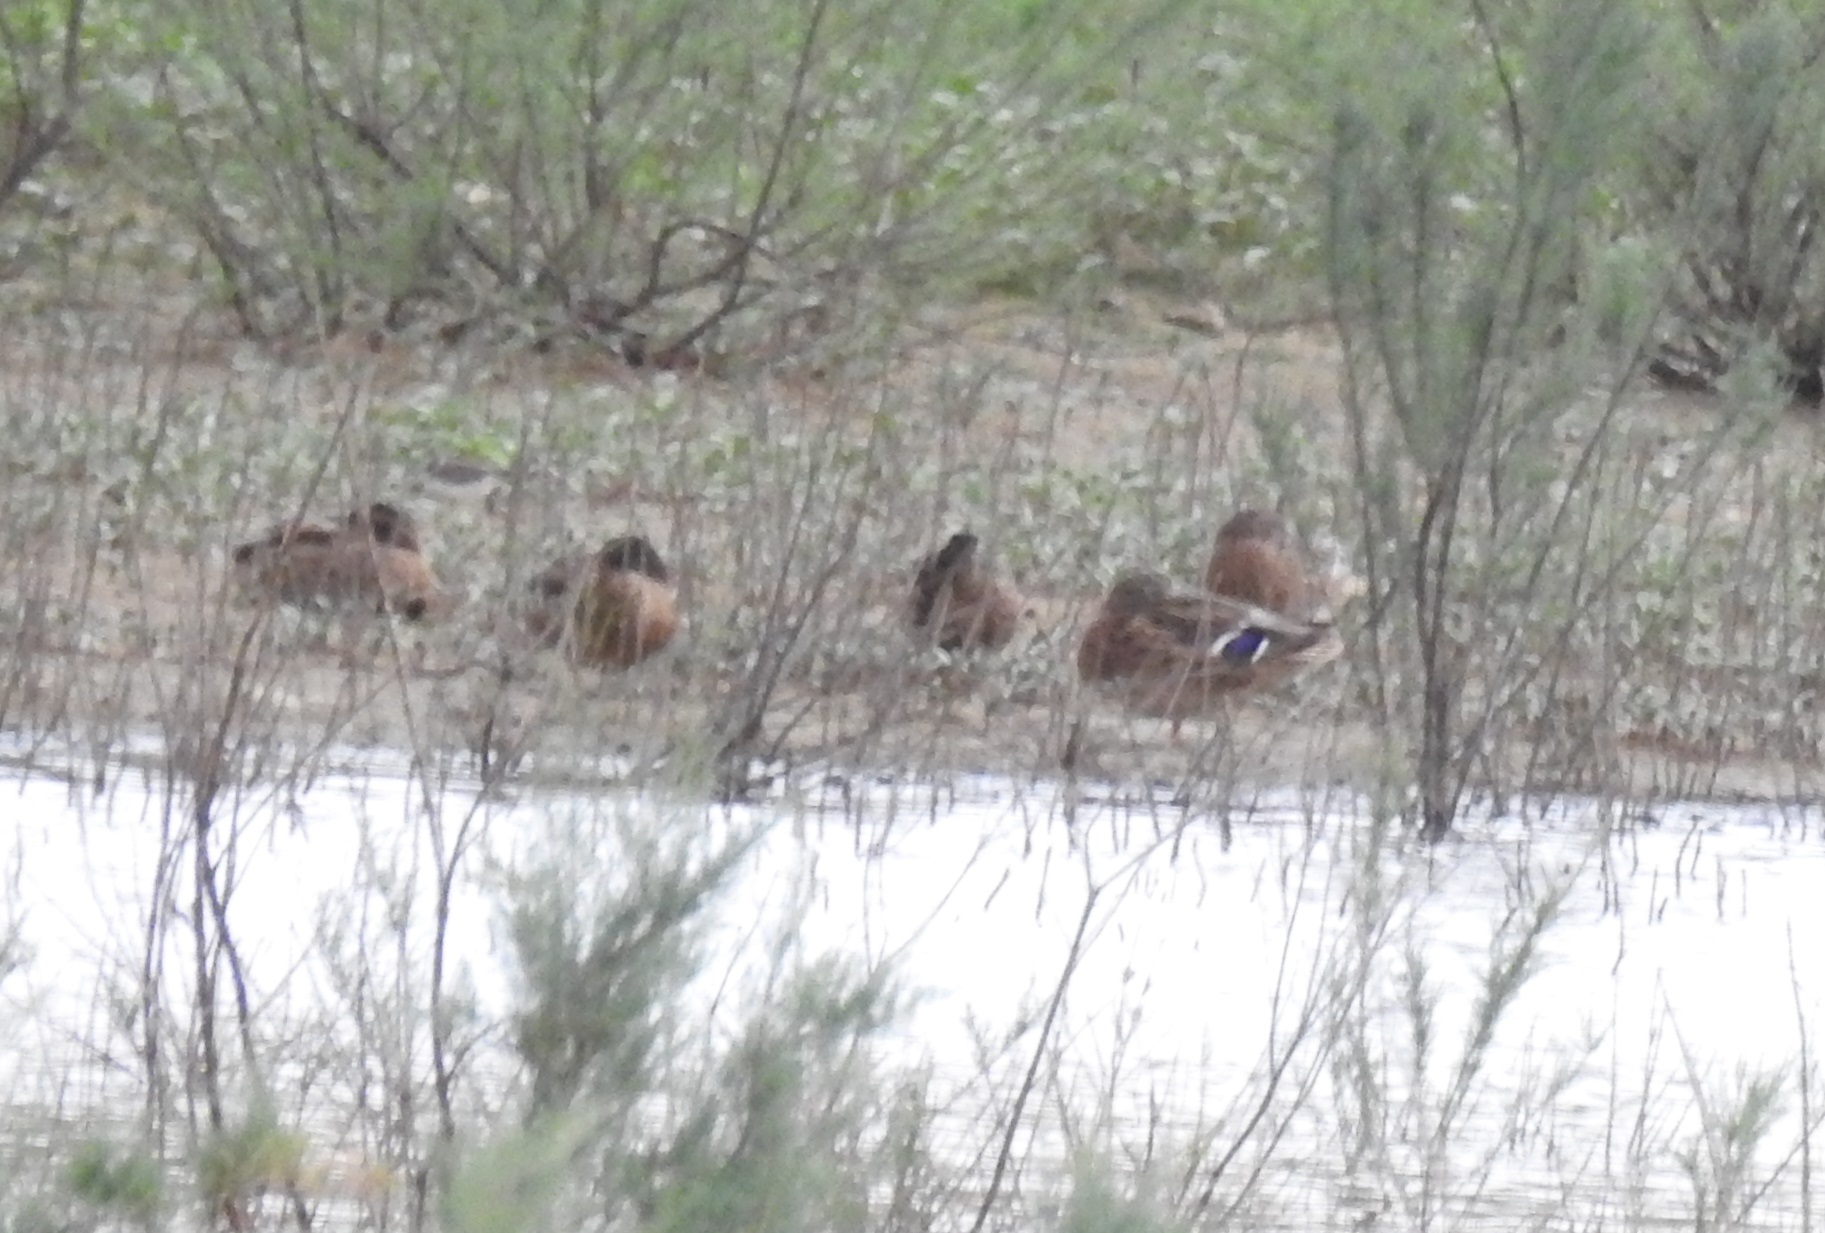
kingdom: Animalia
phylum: Chordata
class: Aves
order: Anseriformes
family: Anatidae
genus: Anas
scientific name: Anas platyrhynchos
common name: Mallard
